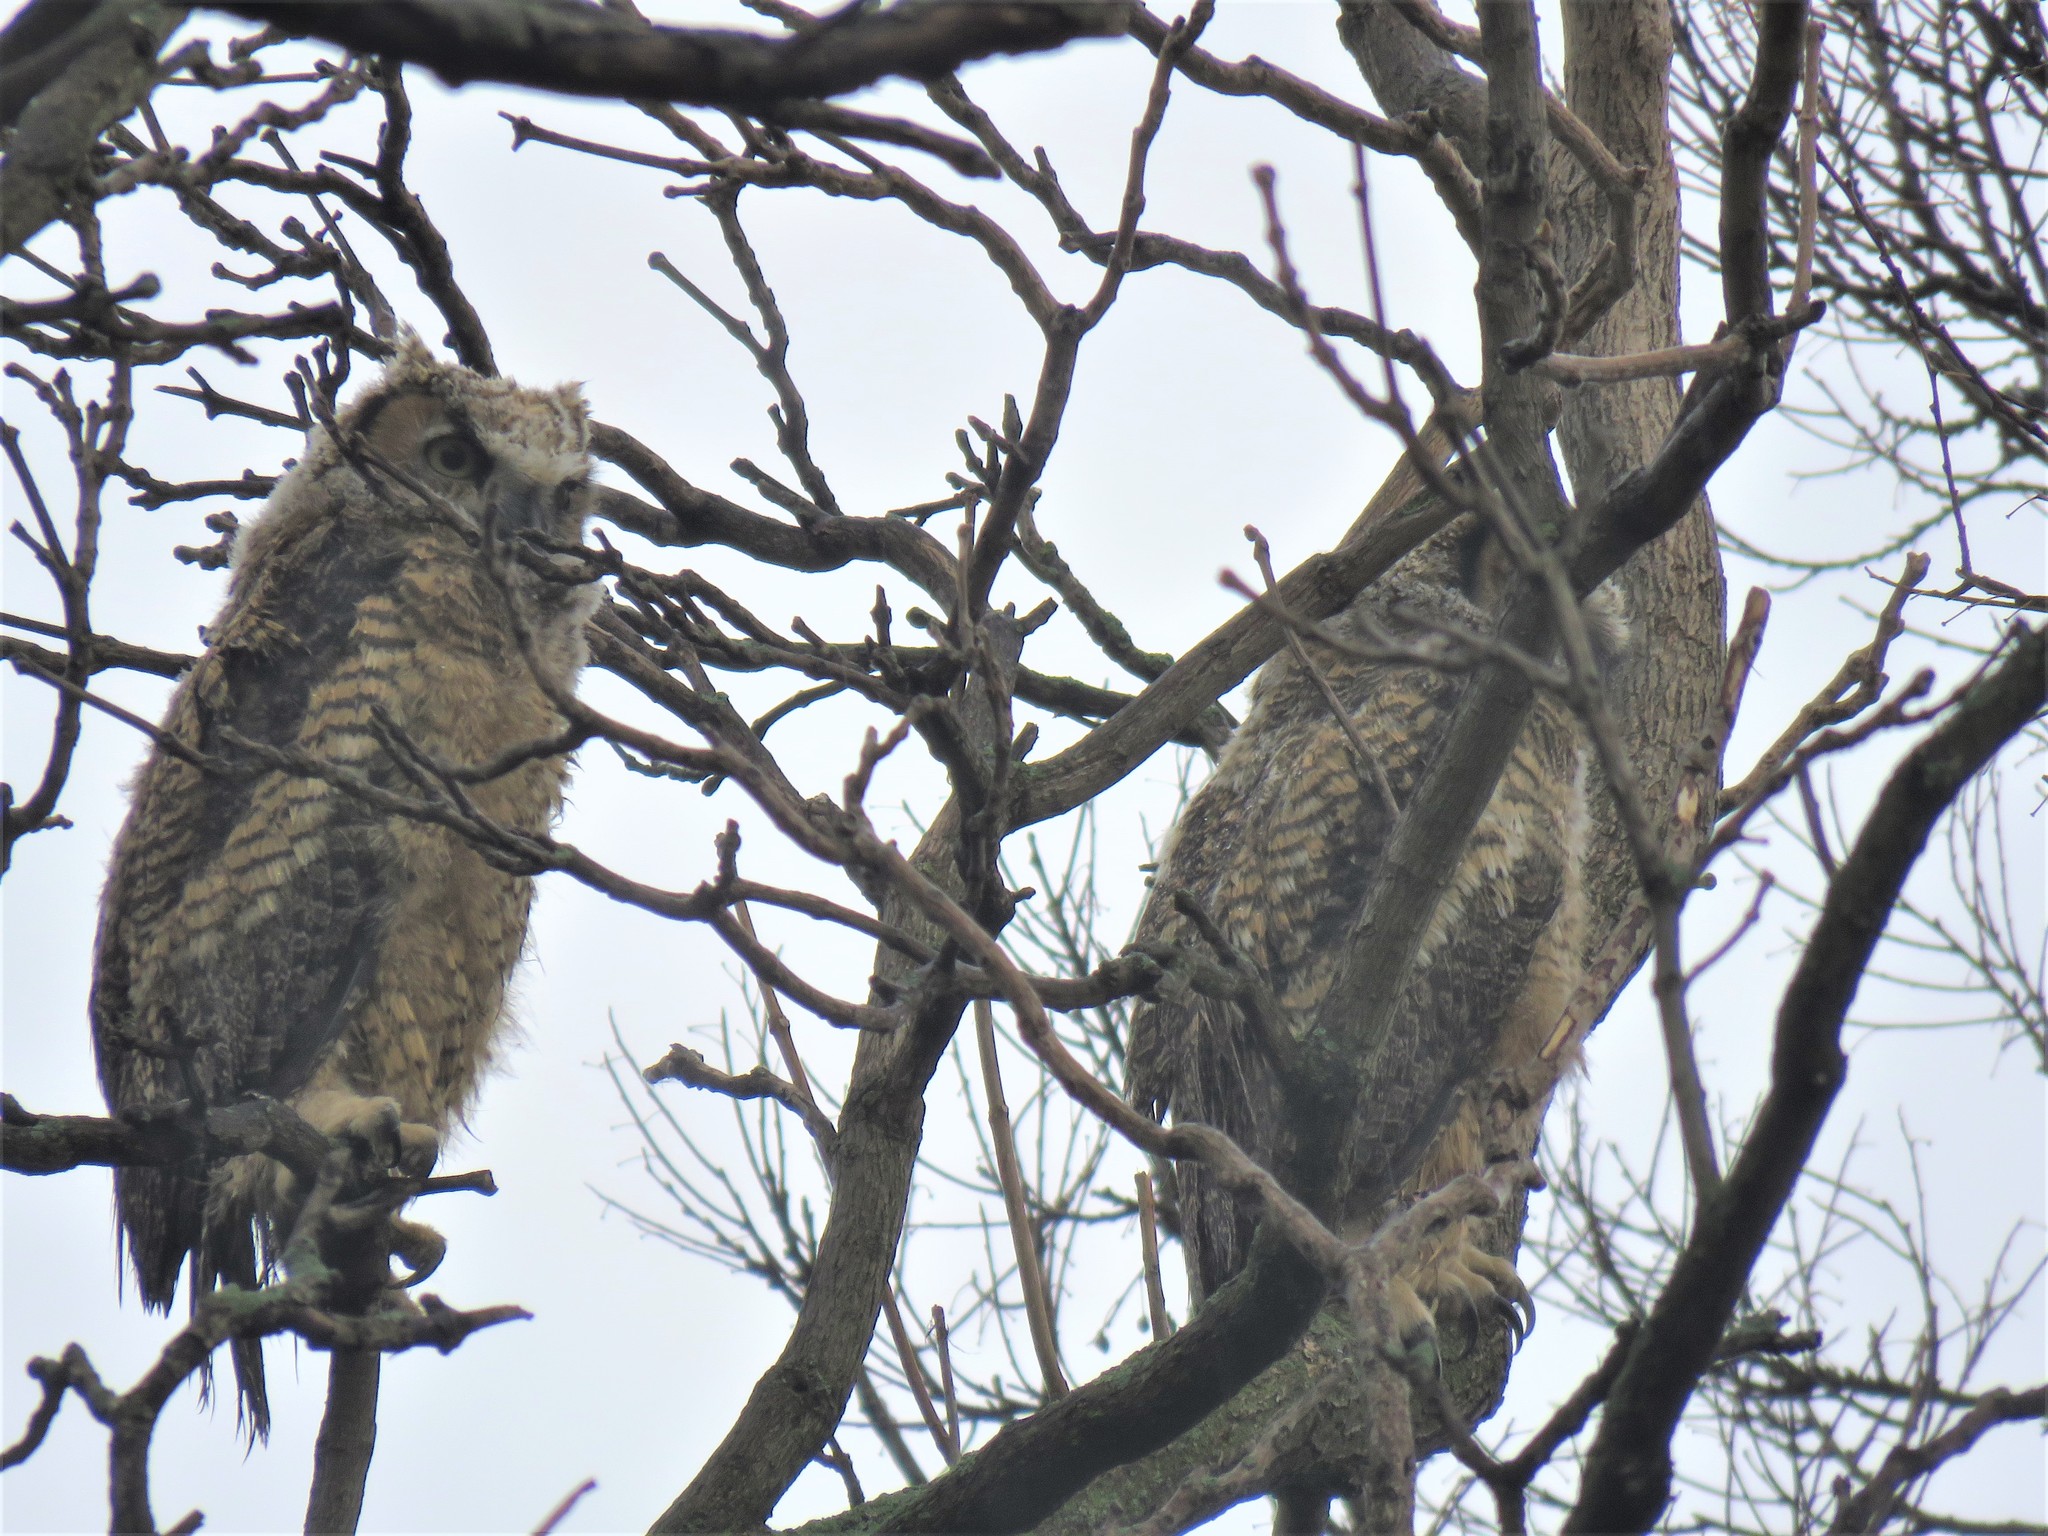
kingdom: Animalia
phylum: Chordata
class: Aves
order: Strigiformes
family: Strigidae
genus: Bubo
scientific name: Bubo virginianus
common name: Great horned owl
